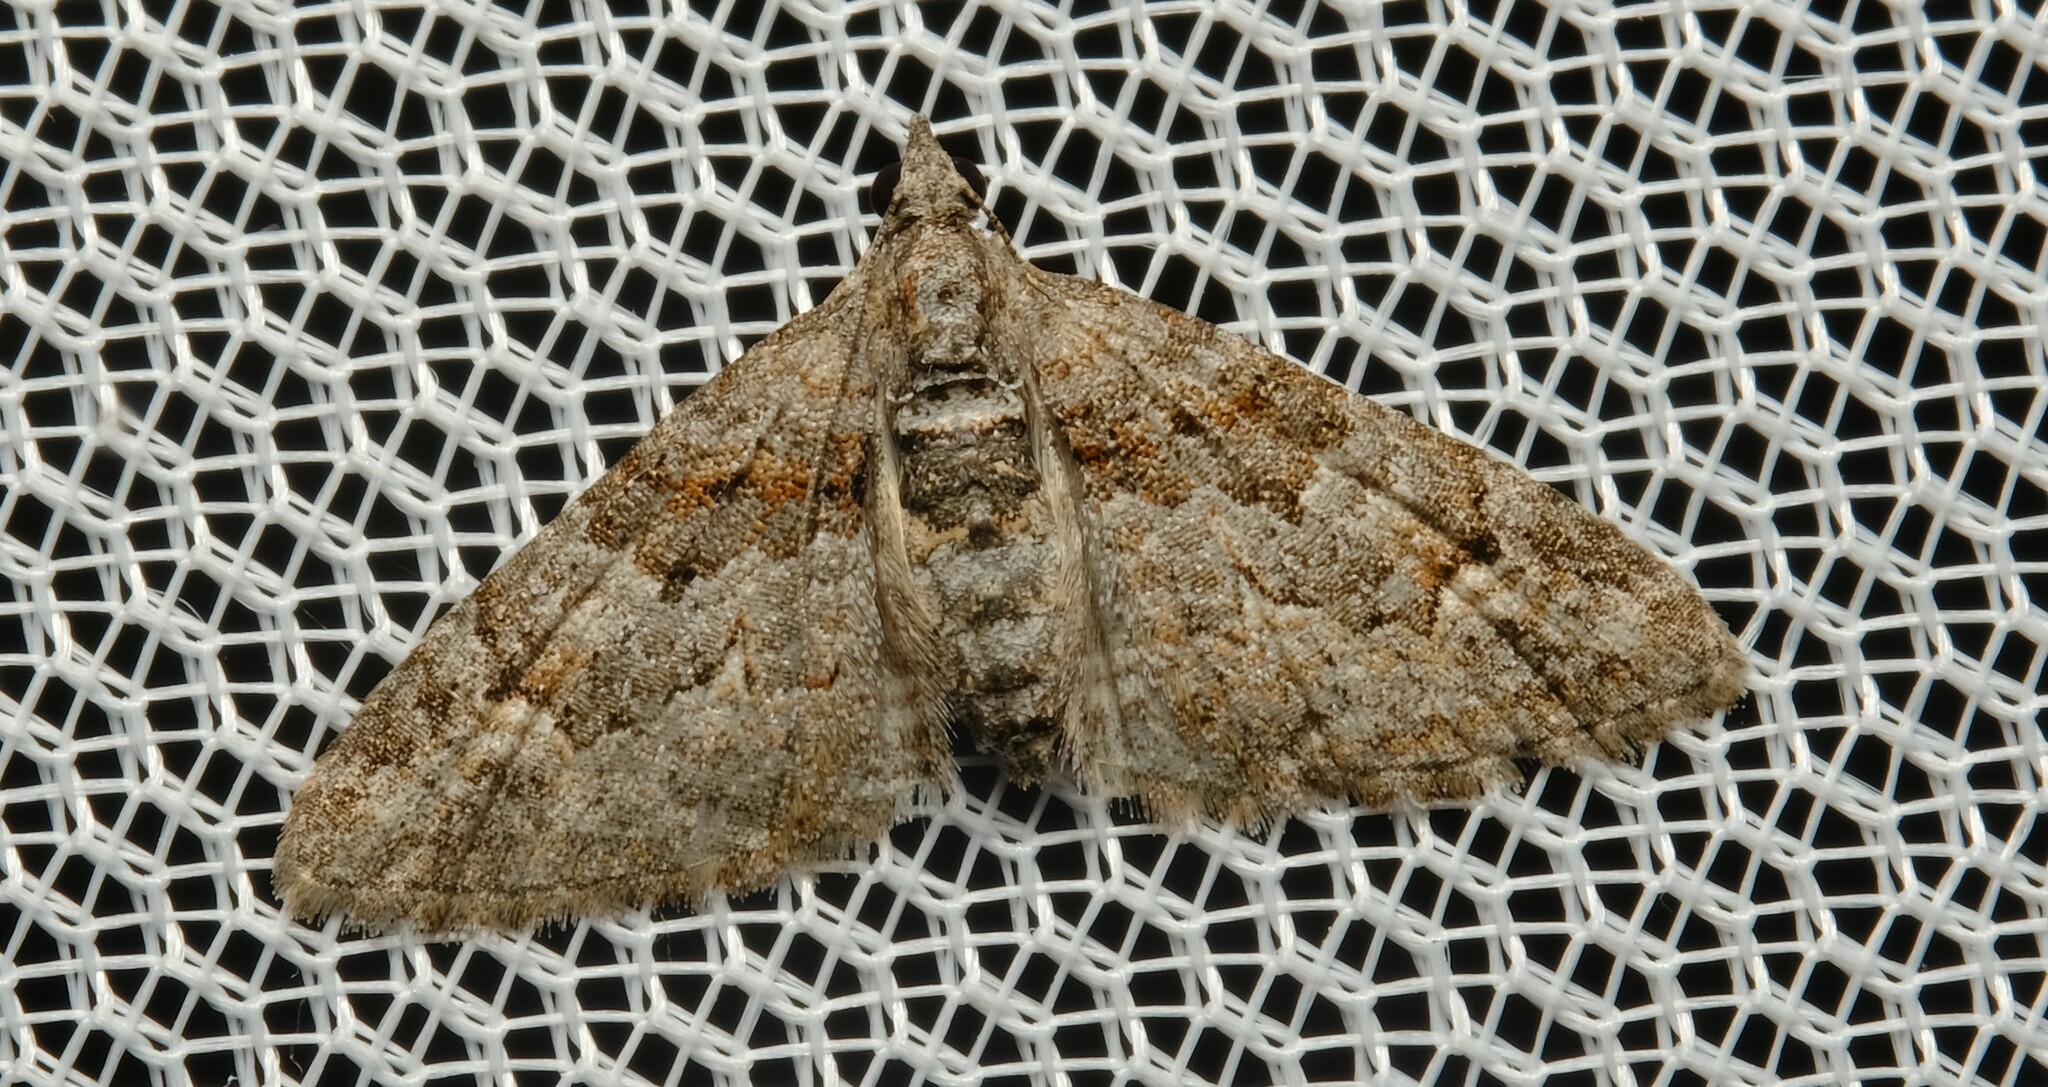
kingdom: Animalia
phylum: Arthropoda
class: Insecta
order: Lepidoptera
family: Geometridae
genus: Phrissogonus
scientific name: Phrissogonus laticostata
